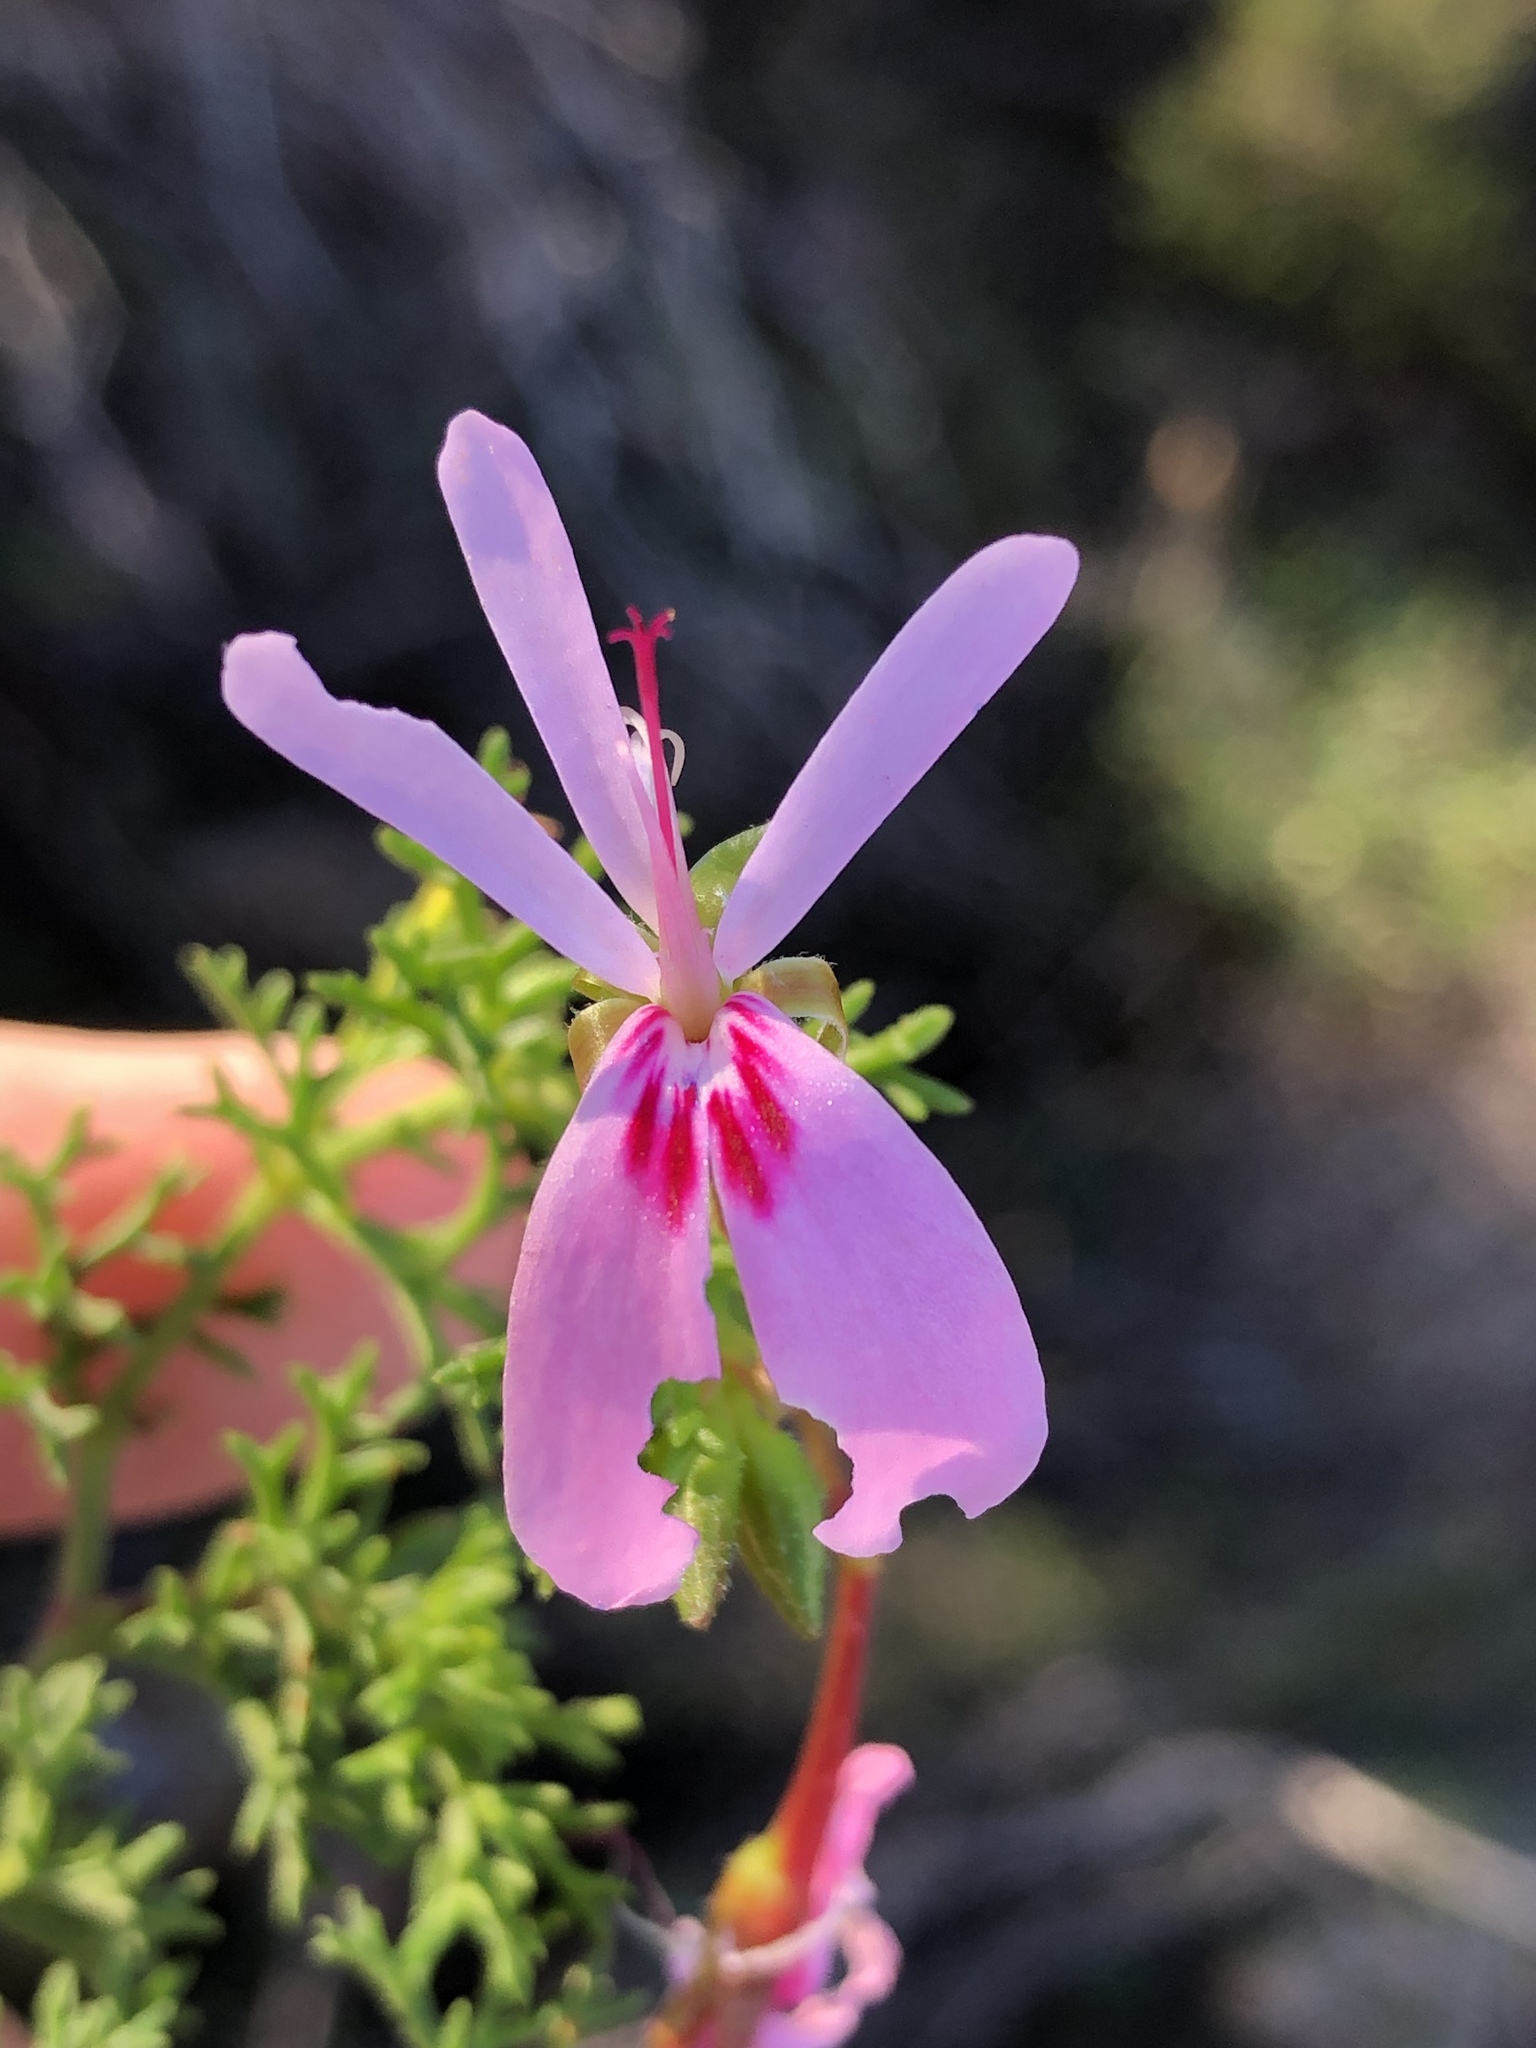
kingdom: Plantae
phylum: Tracheophyta
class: Magnoliopsida
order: Geraniales
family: Geraniaceae
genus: Pelargonium
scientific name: Pelargonium fruticosum
